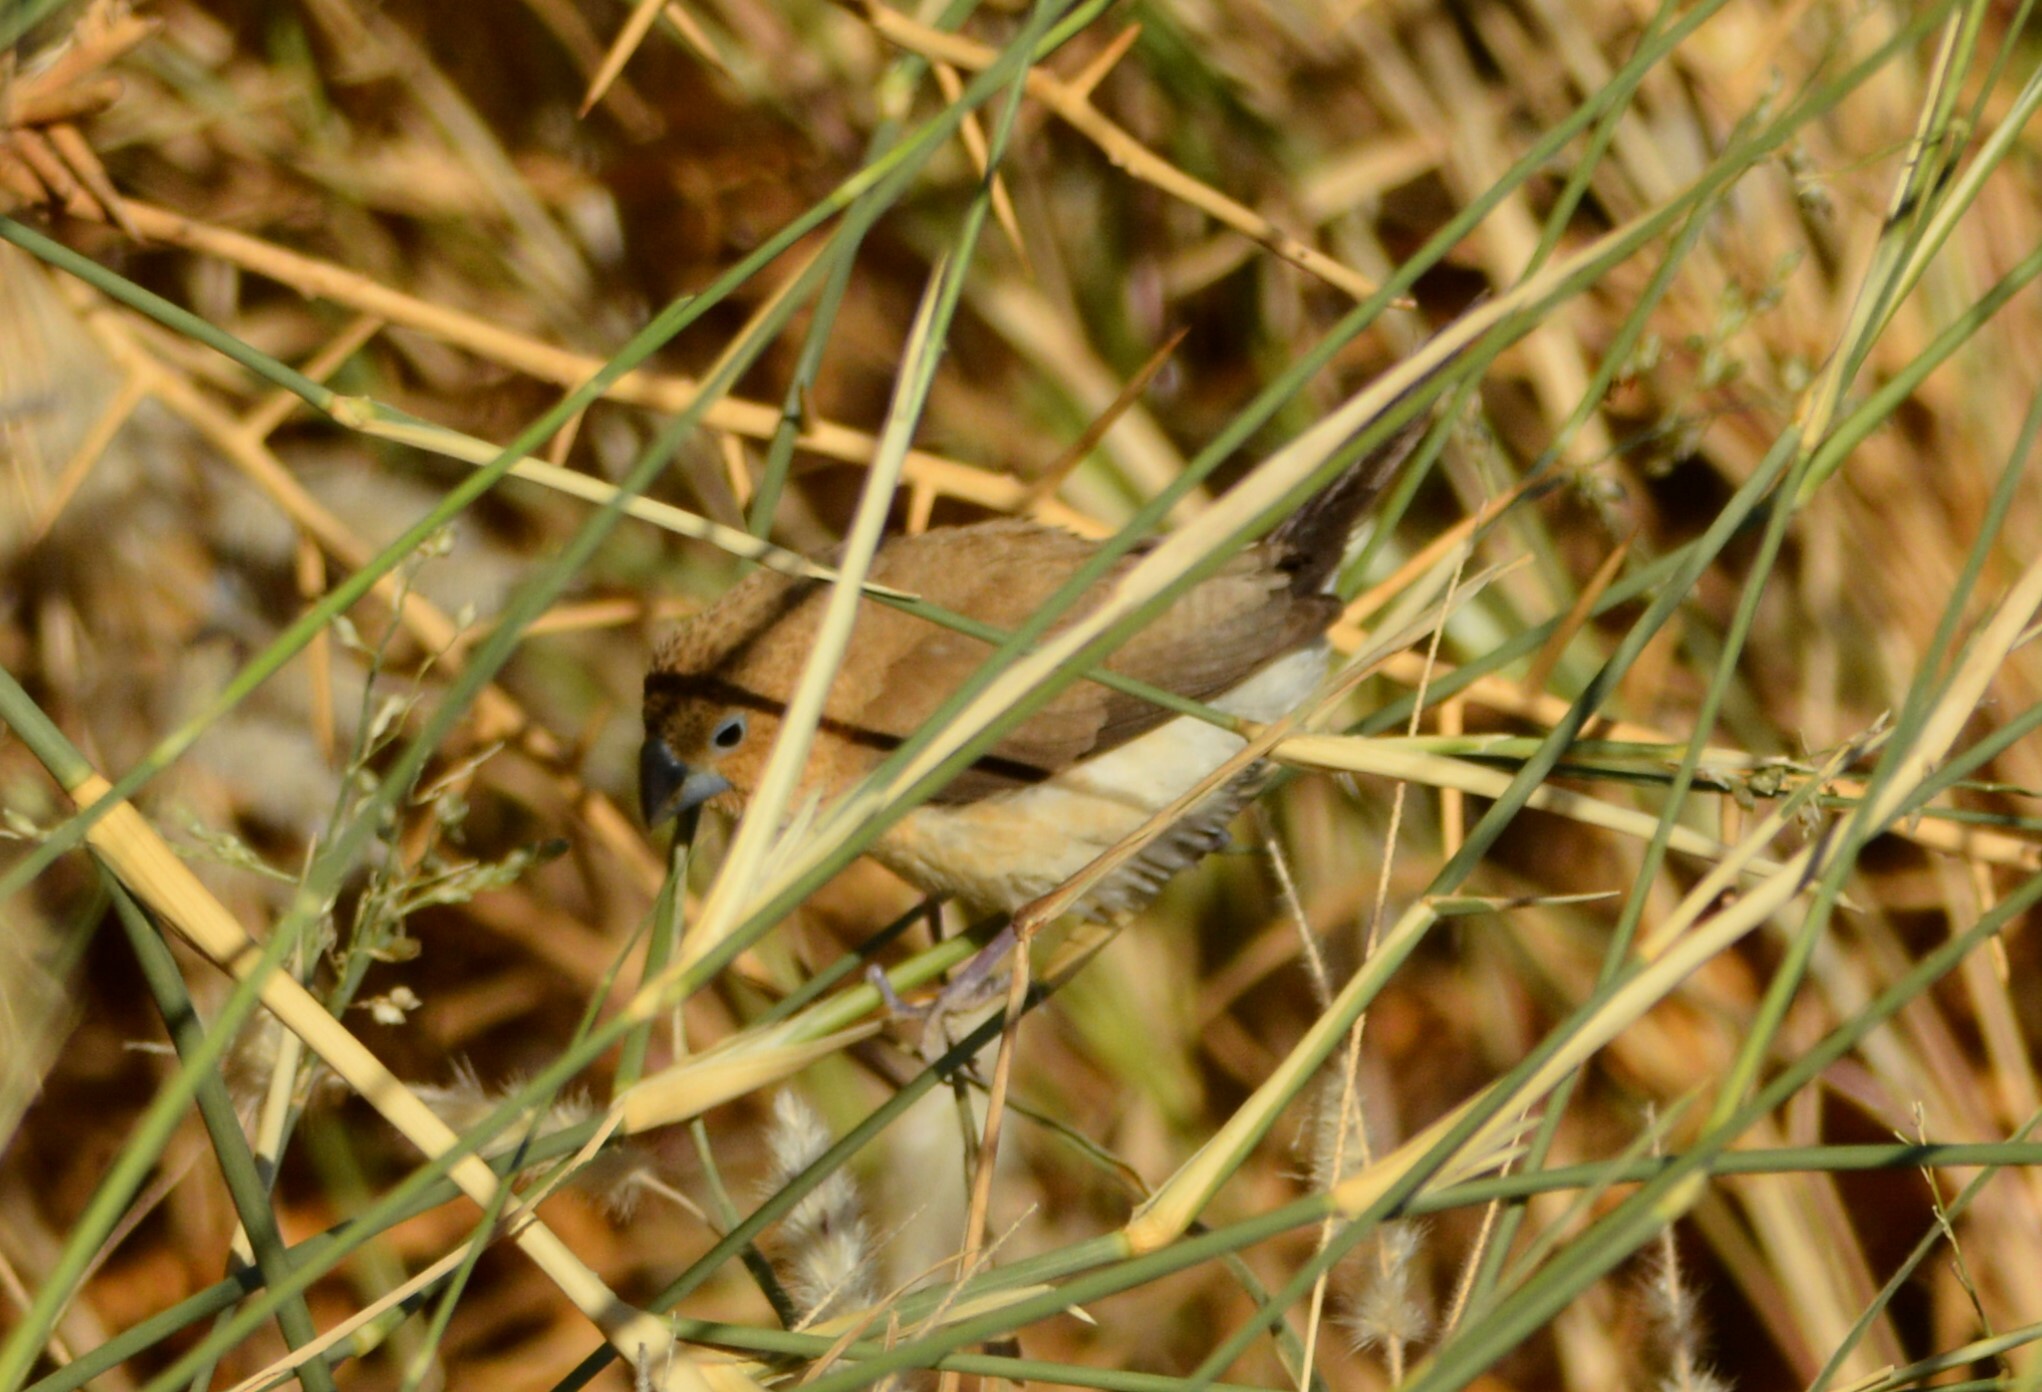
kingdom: Animalia
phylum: Chordata
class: Aves
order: Passeriformes
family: Estrildidae
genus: Euodice
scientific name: Euodice cantans
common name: African silverbill
